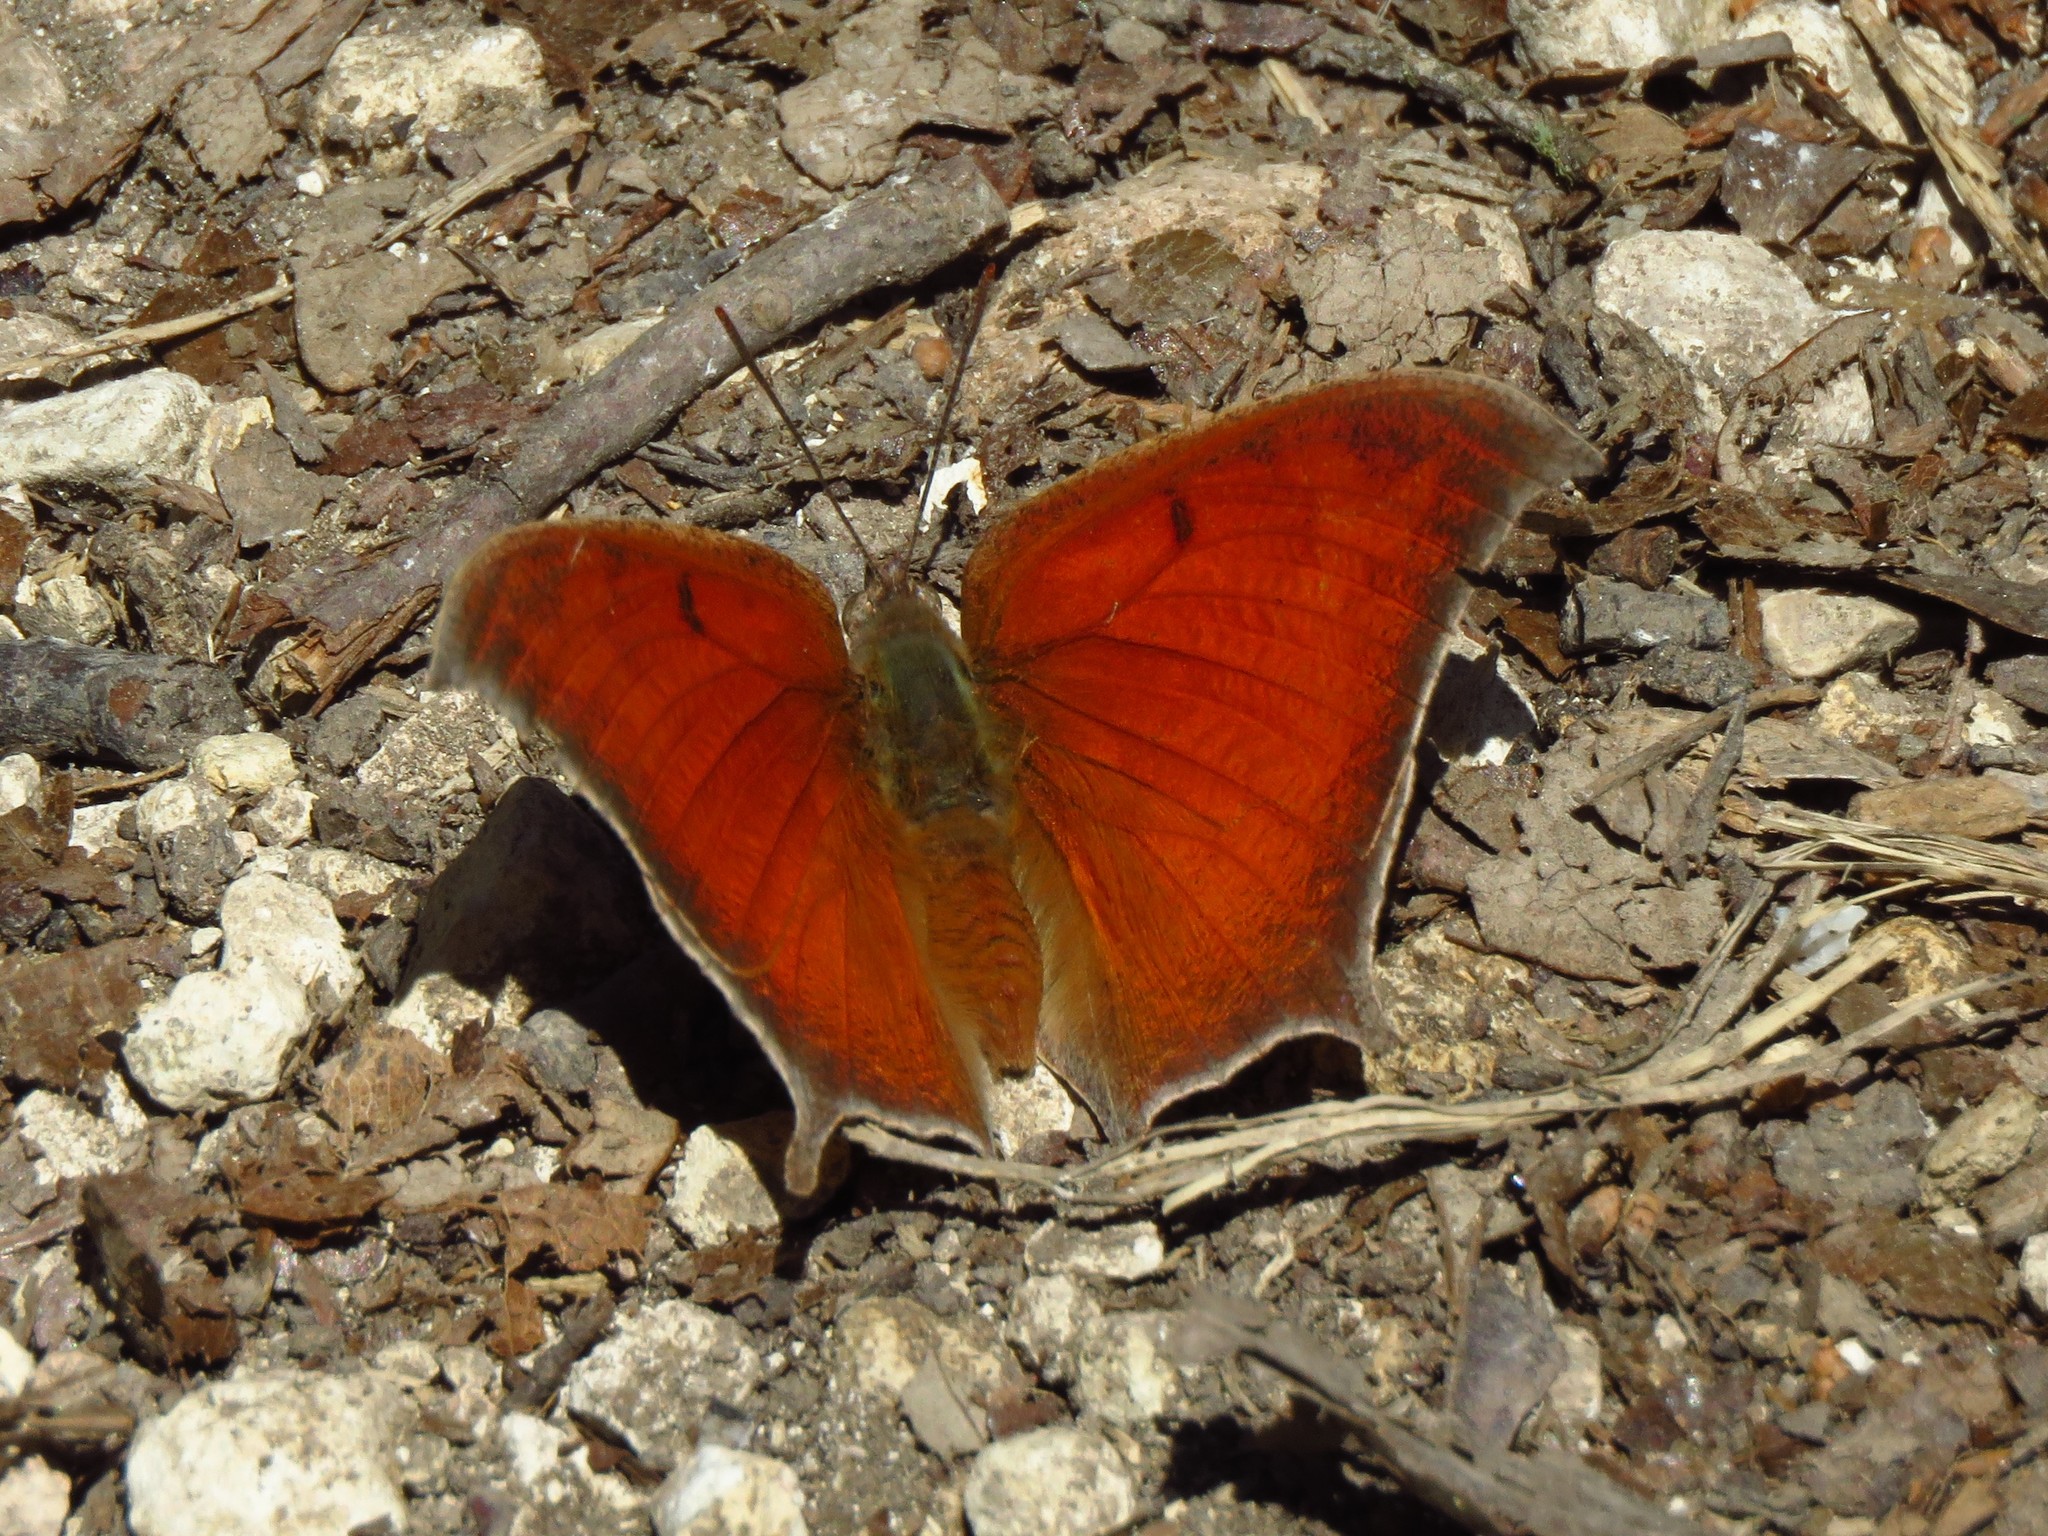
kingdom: Animalia
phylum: Arthropoda
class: Insecta
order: Lepidoptera
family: Nymphalidae
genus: Anaea
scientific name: Anaea andria
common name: Goatweed leafwing
